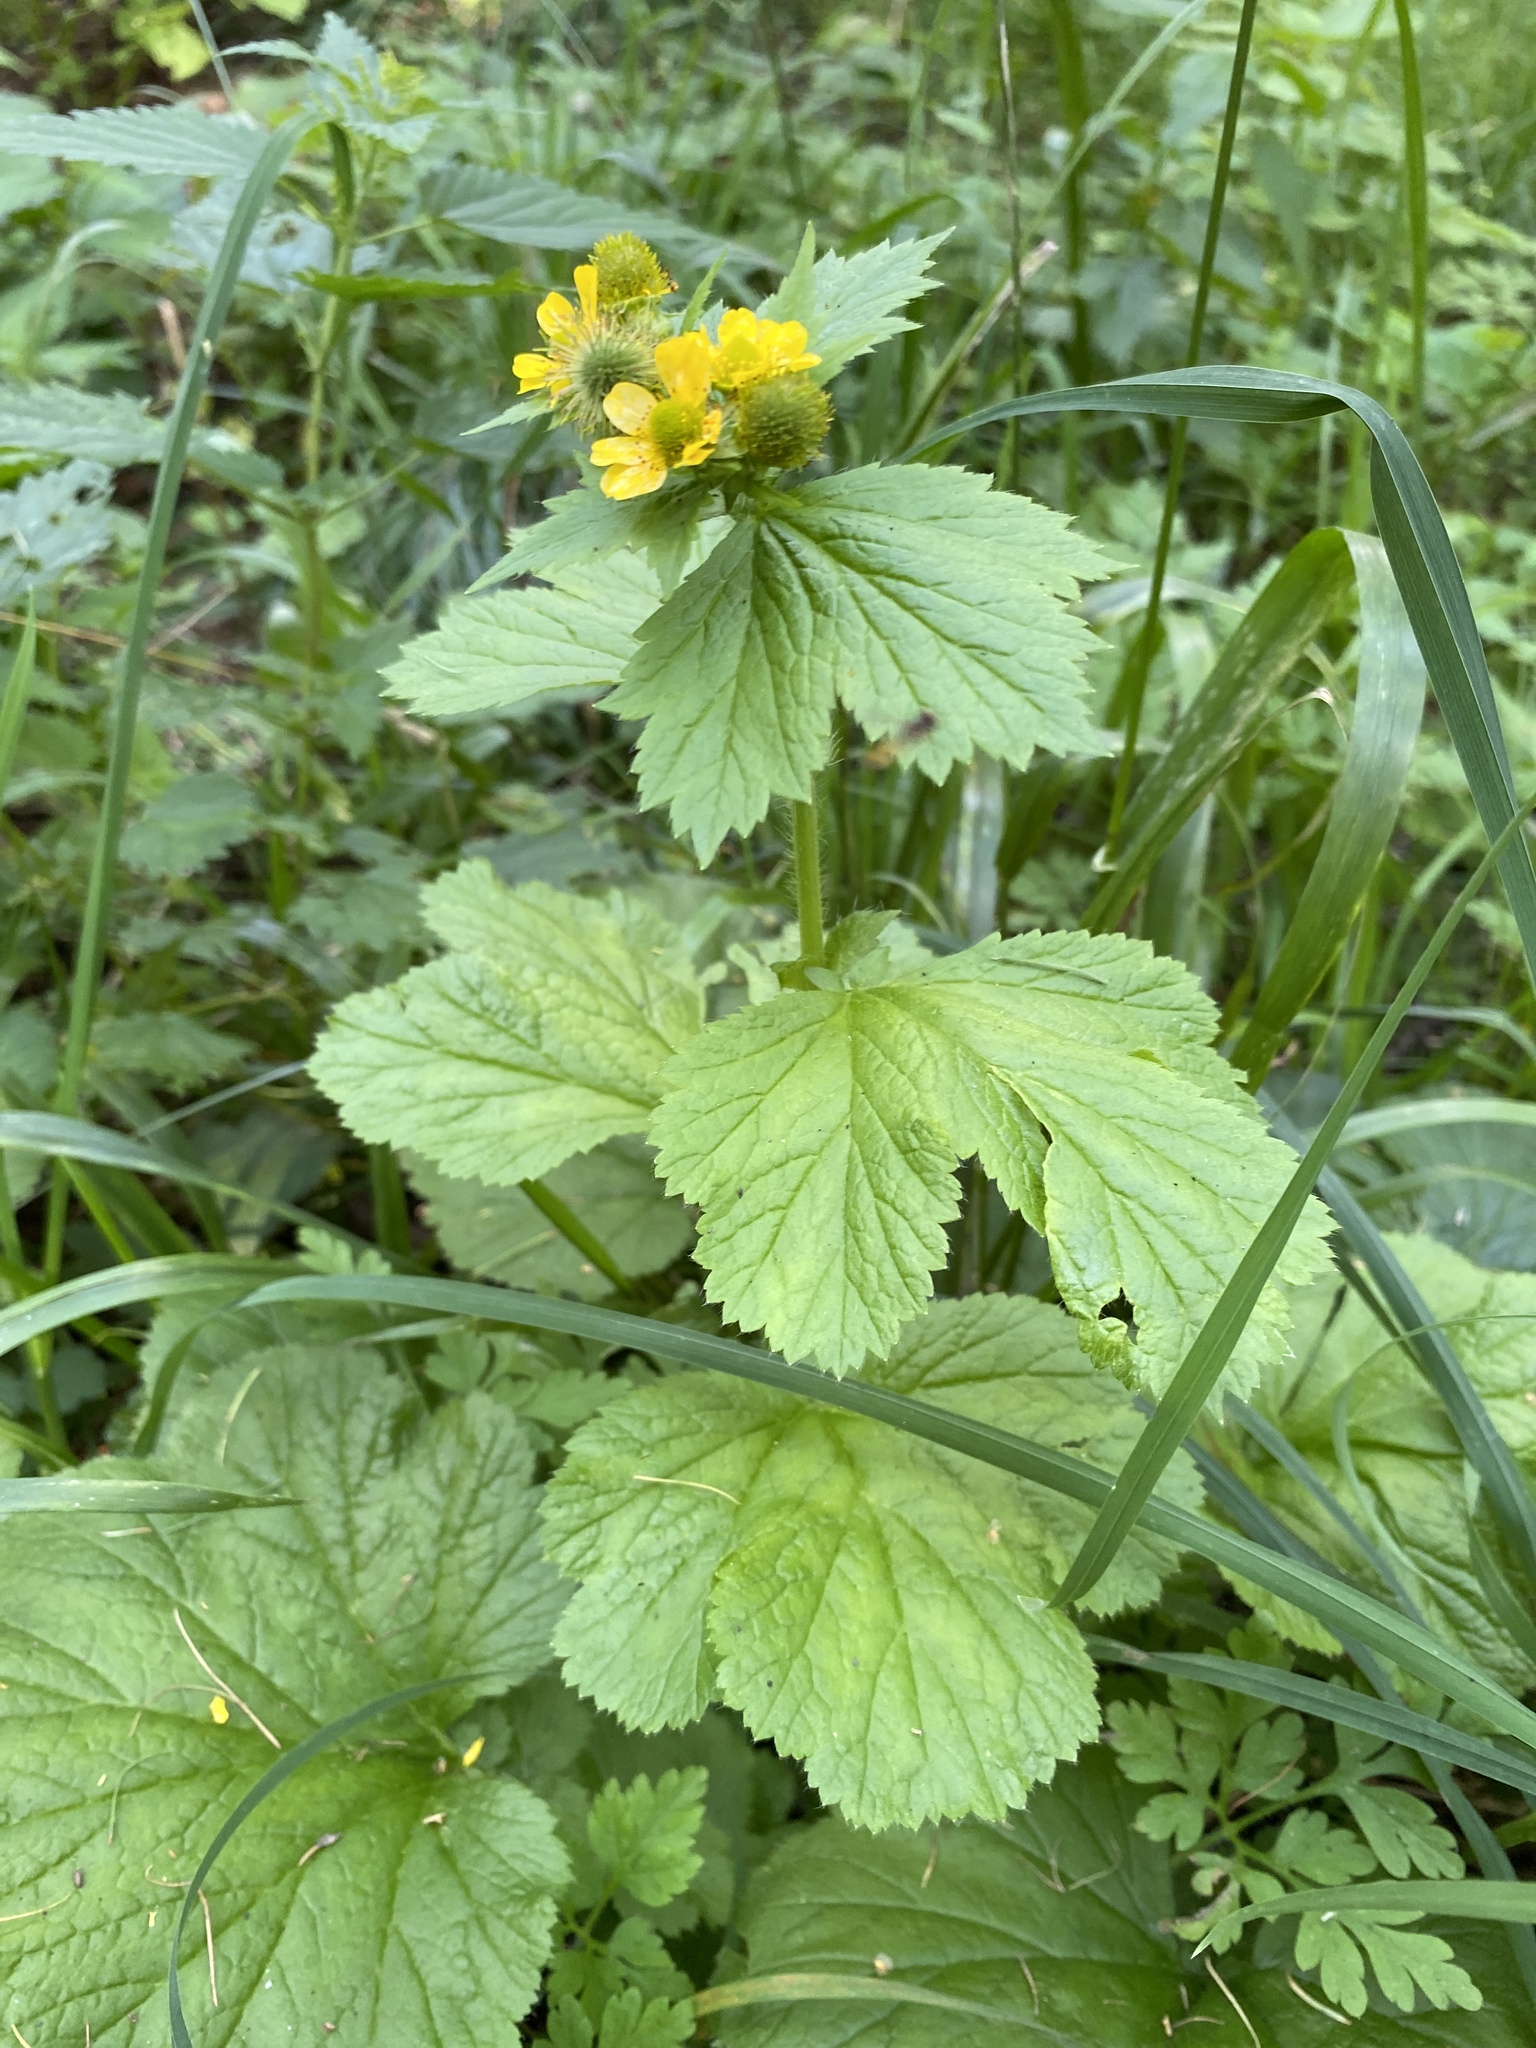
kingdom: Plantae
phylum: Tracheophyta
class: Magnoliopsida
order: Rosales
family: Rosaceae
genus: Geum
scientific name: Geum macrophyllum
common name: Large-leaved avens
